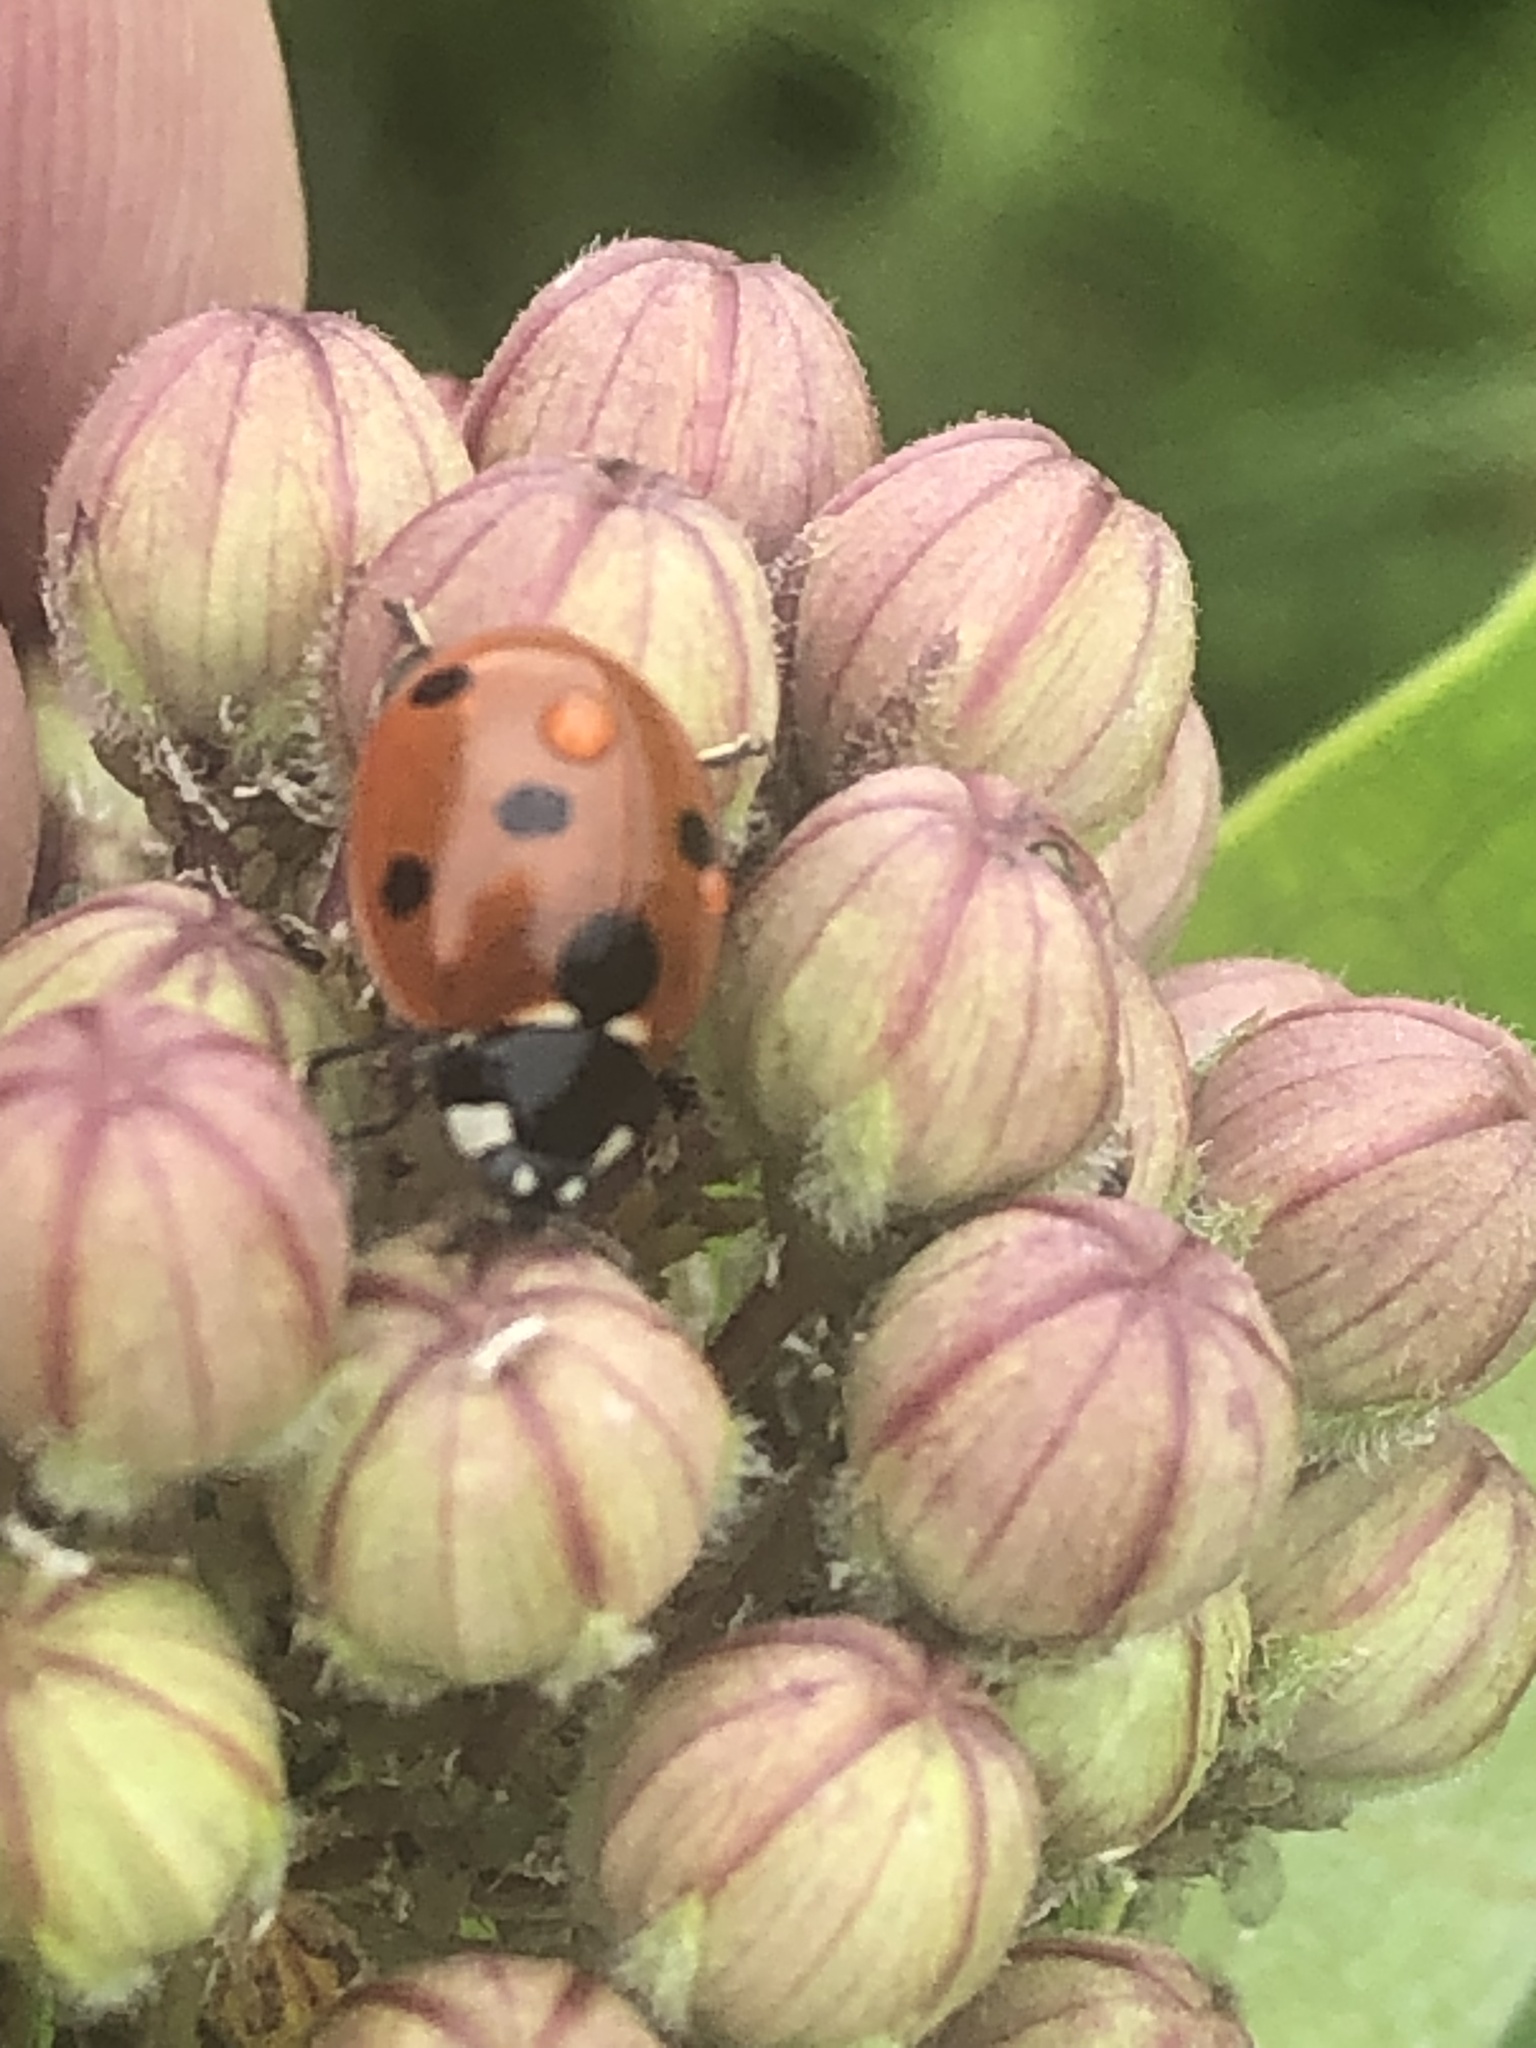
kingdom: Animalia
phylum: Arthropoda
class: Insecta
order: Coleoptera
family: Coccinellidae
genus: Coccinella
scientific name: Coccinella septempunctata
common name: Sevenspotted lady beetle
